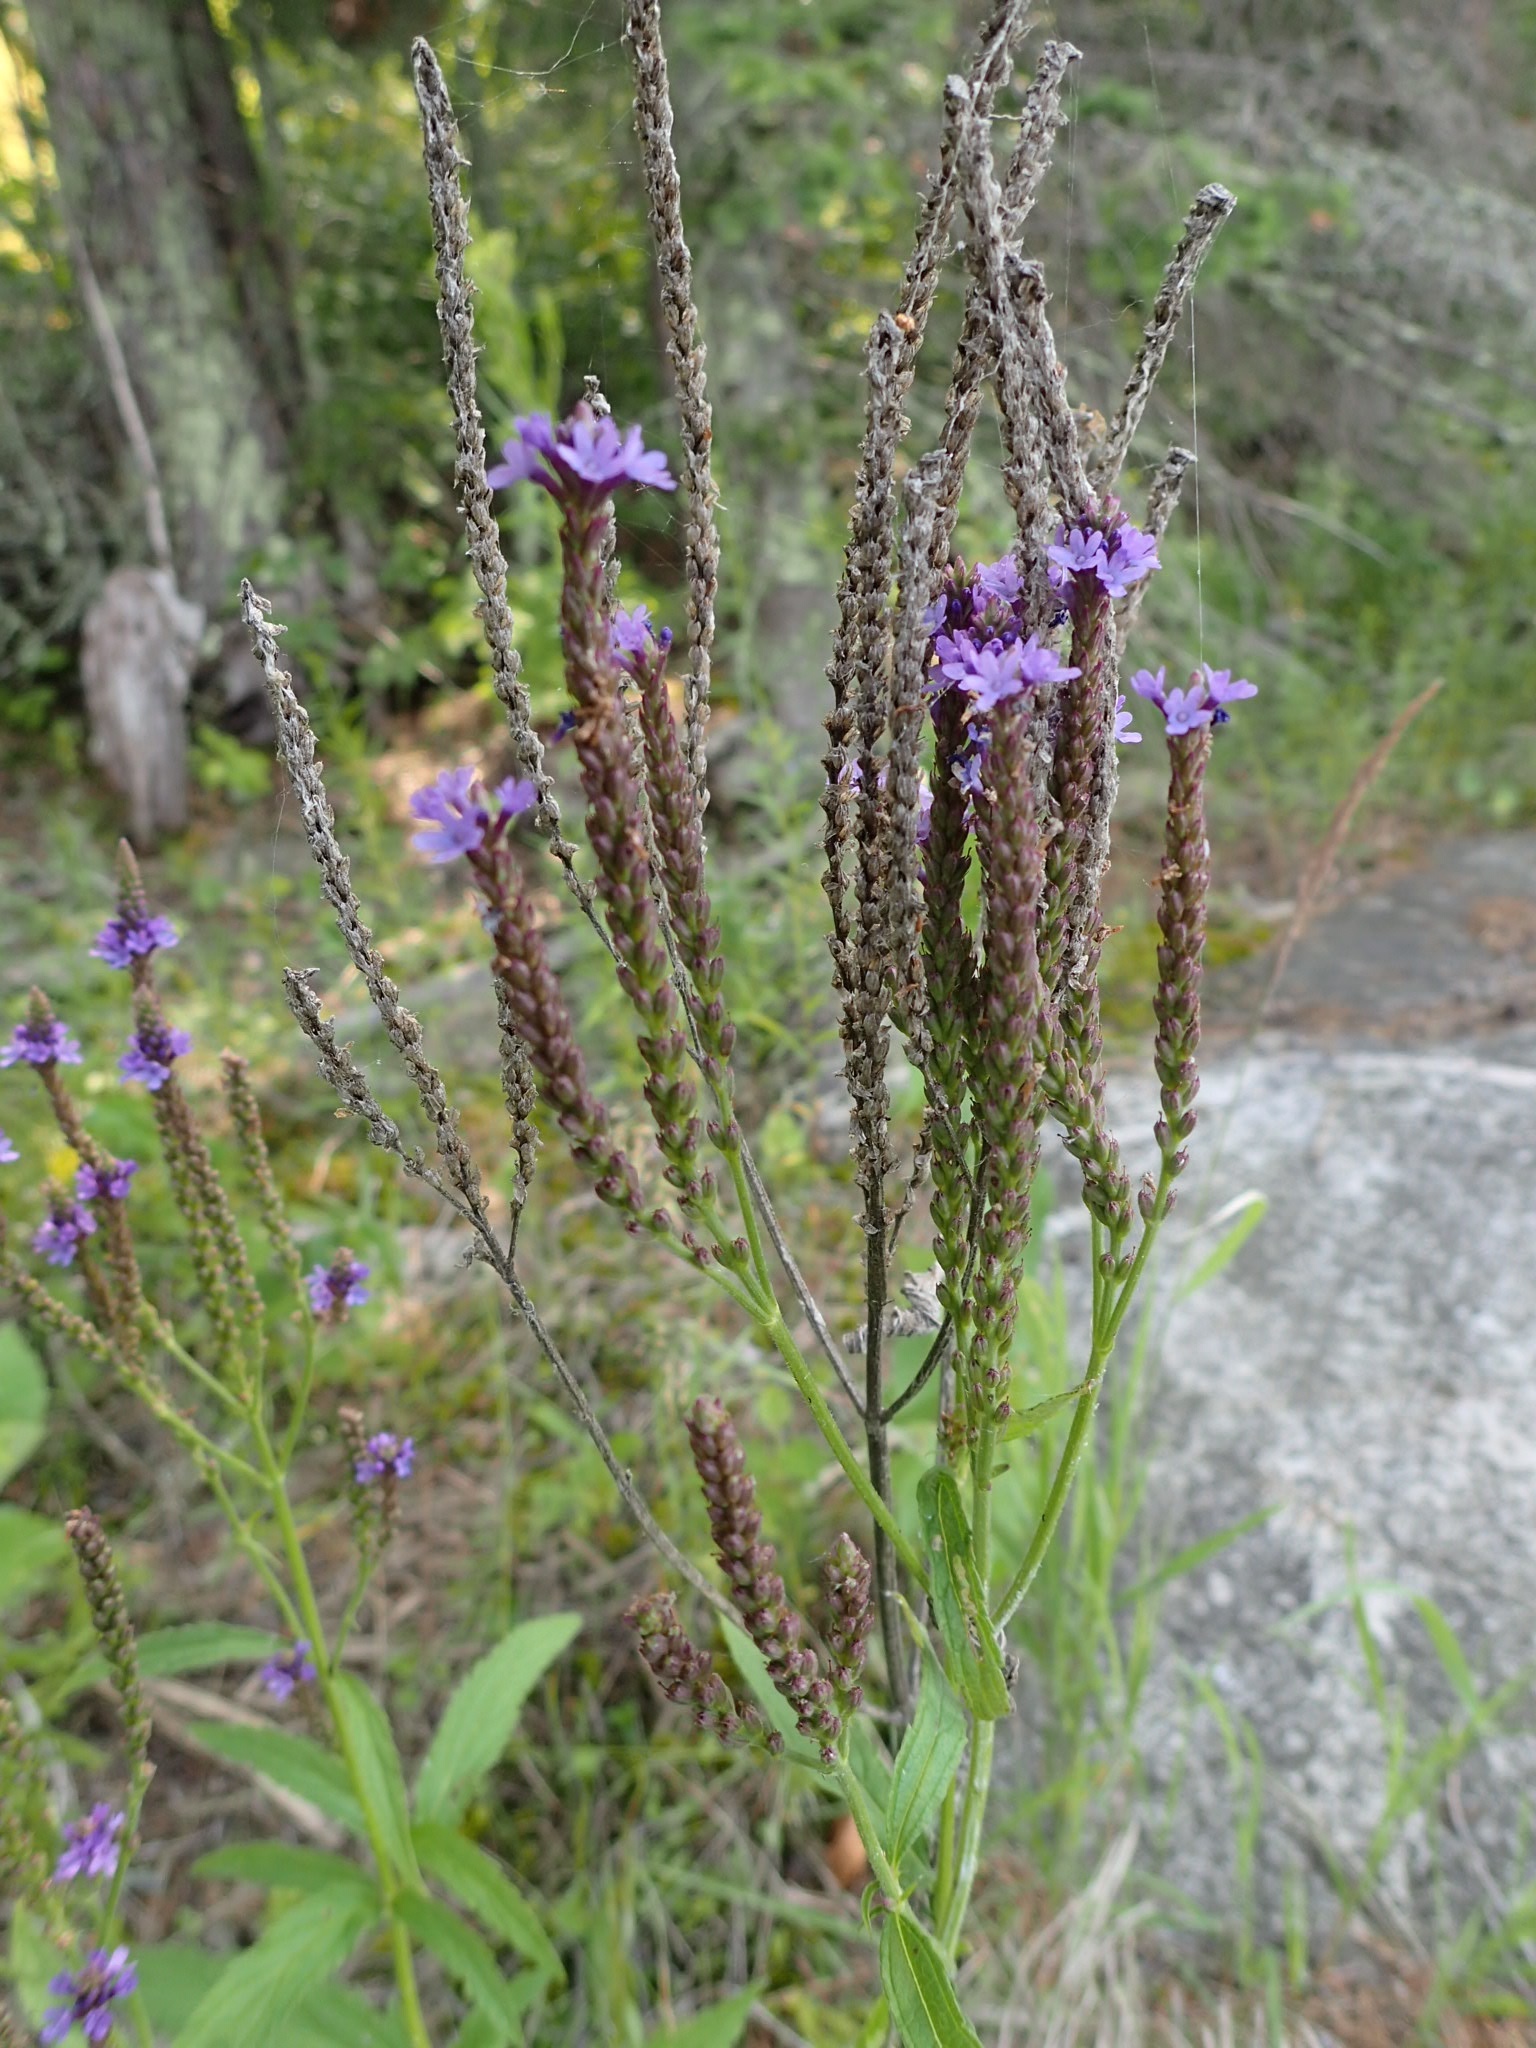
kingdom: Plantae
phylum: Tracheophyta
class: Magnoliopsida
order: Lamiales
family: Verbenaceae
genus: Verbena
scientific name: Verbena hastata
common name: American blue vervain
